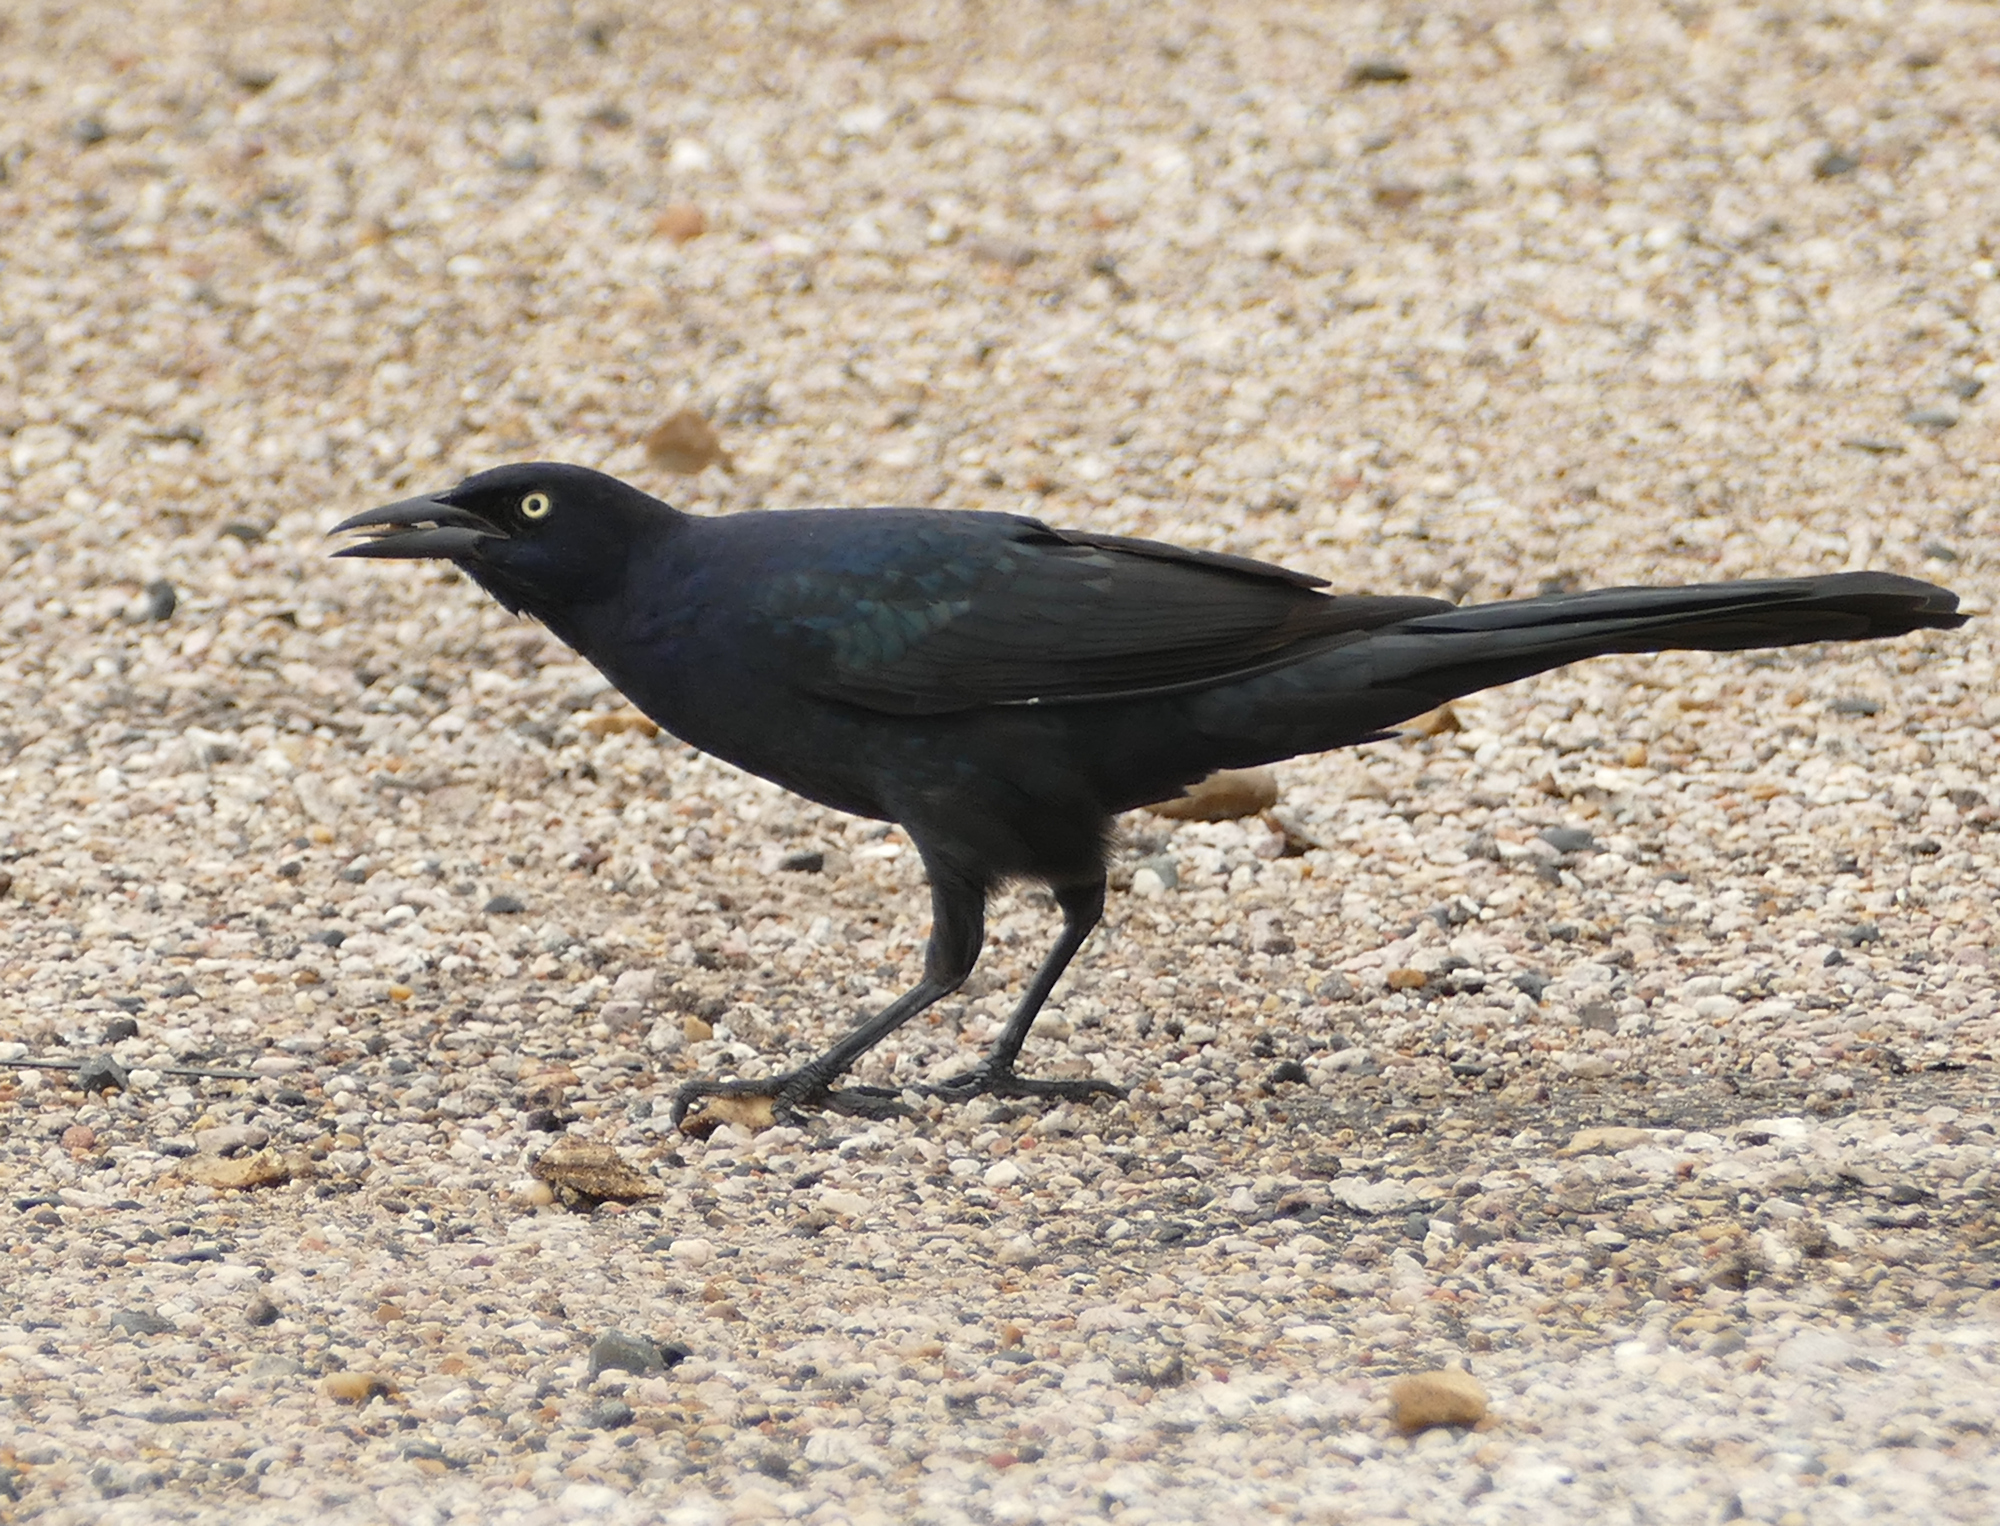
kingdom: Animalia
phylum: Chordata
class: Aves
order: Passeriformes
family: Icteridae
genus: Quiscalus
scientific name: Quiscalus mexicanus
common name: Great-tailed grackle
